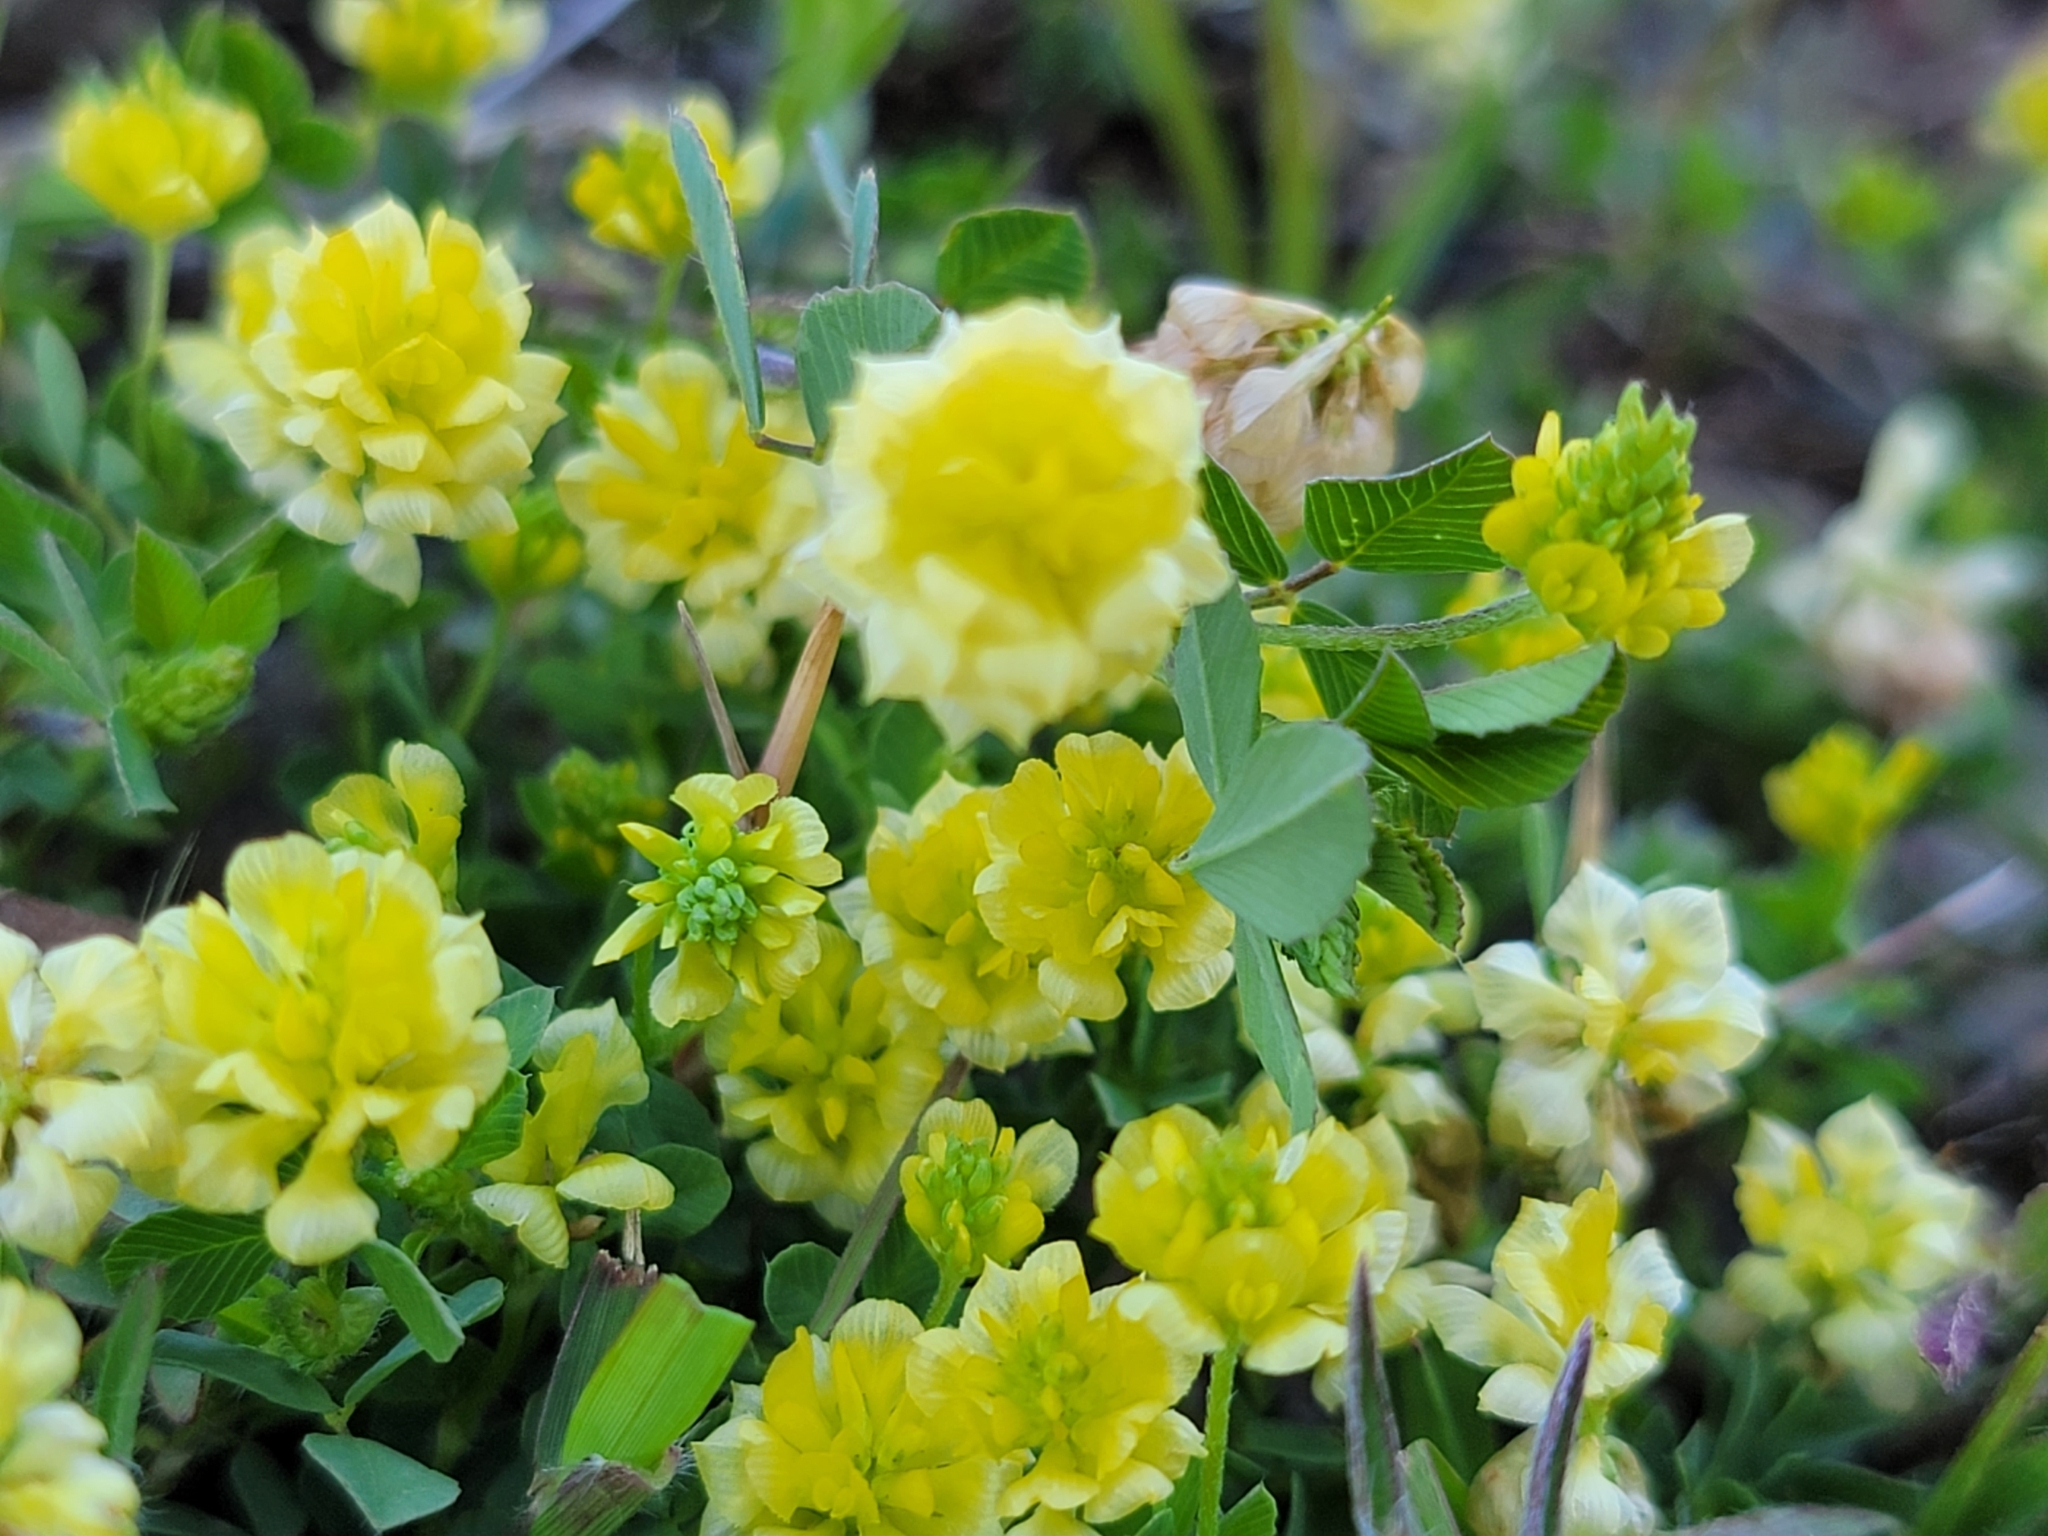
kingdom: Plantae
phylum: Tracheophyta
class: Magnoliopsida
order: Fabales
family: Fabaceae
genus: Trifolium
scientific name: Trifolium campestre
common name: Field clover
